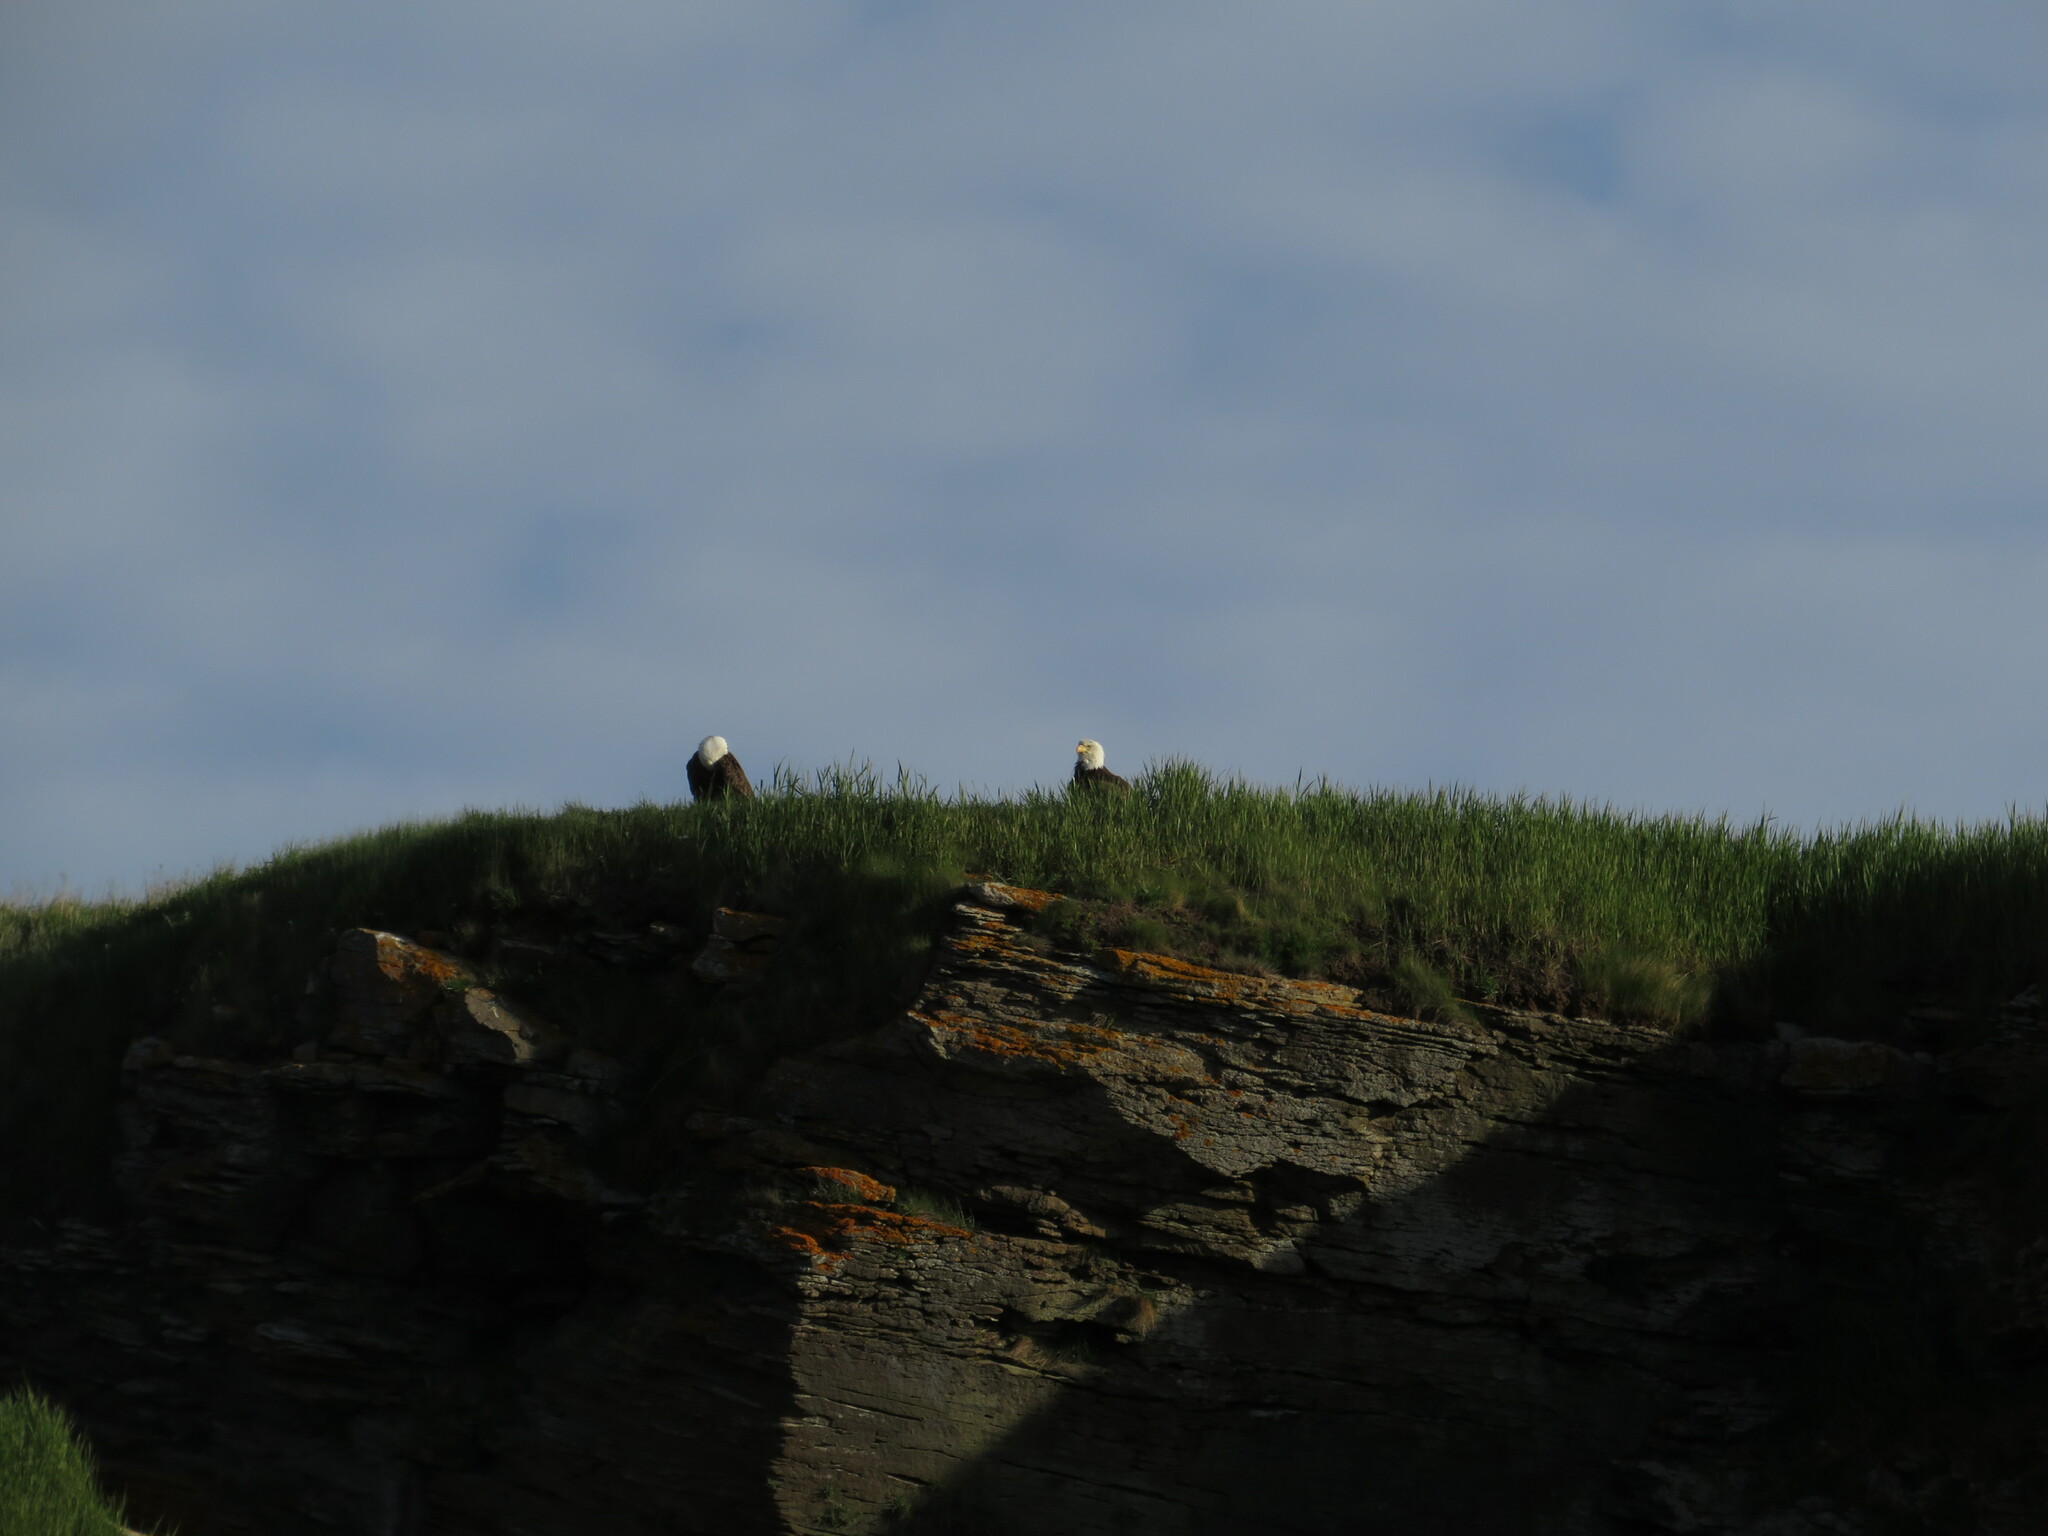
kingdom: Animalia
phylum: Chordata
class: Aves
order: Accipitriformes
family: Accipitridae
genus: Haliaeetus
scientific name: Haliaeetus leucocephalus
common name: Bald eagle
